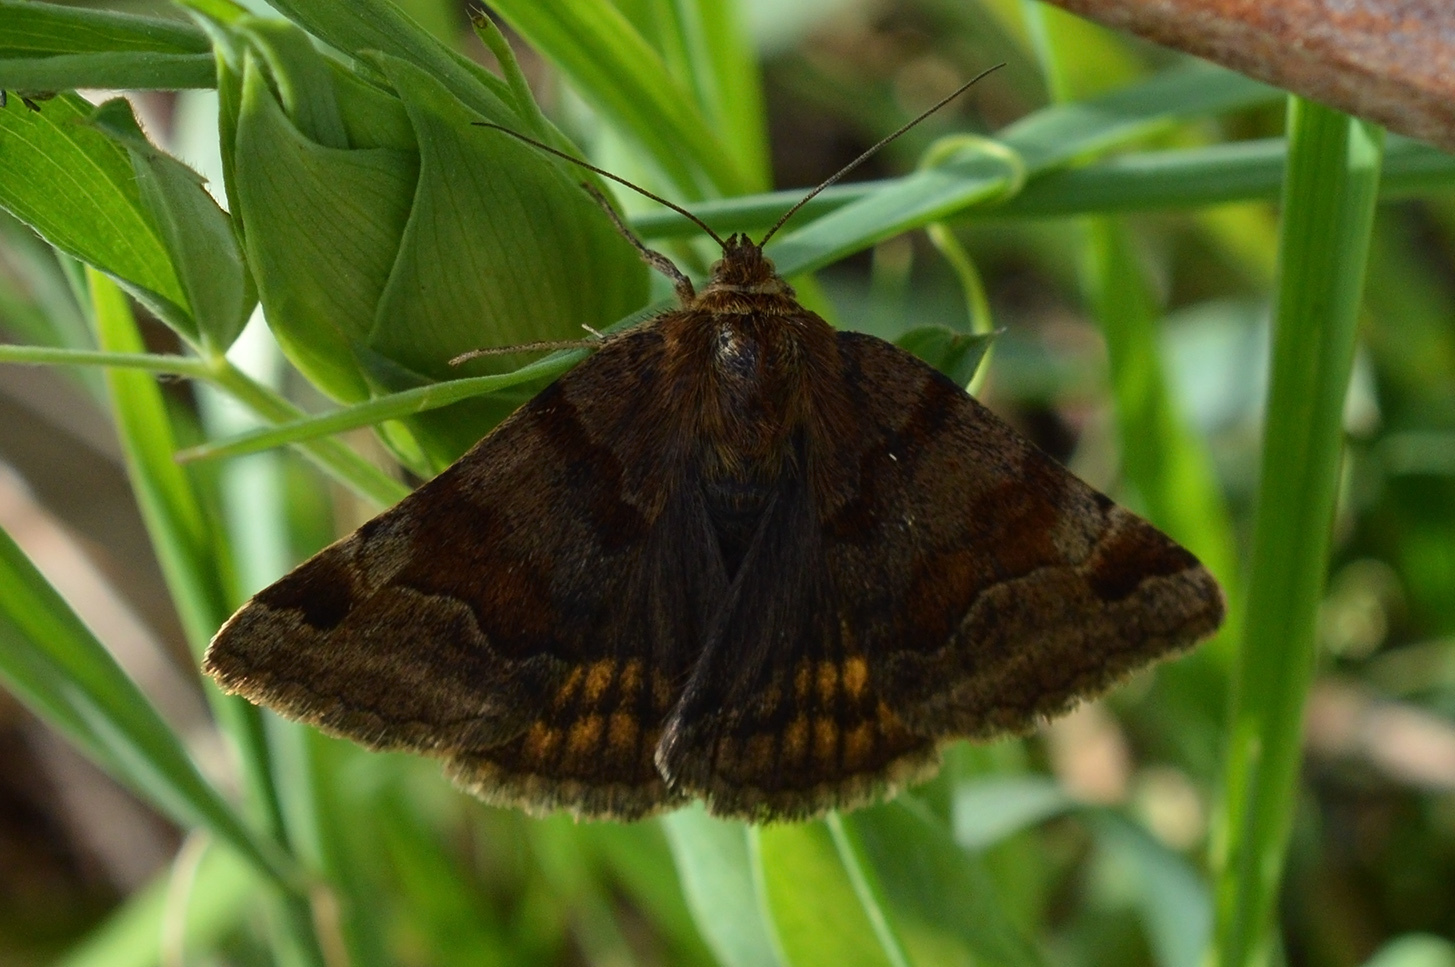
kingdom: Animalia
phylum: Arthropoda
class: Insecta
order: Lepidoptera
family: Erebidae
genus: Euclidia
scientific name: Euclidia glyphica
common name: Burnet companion
